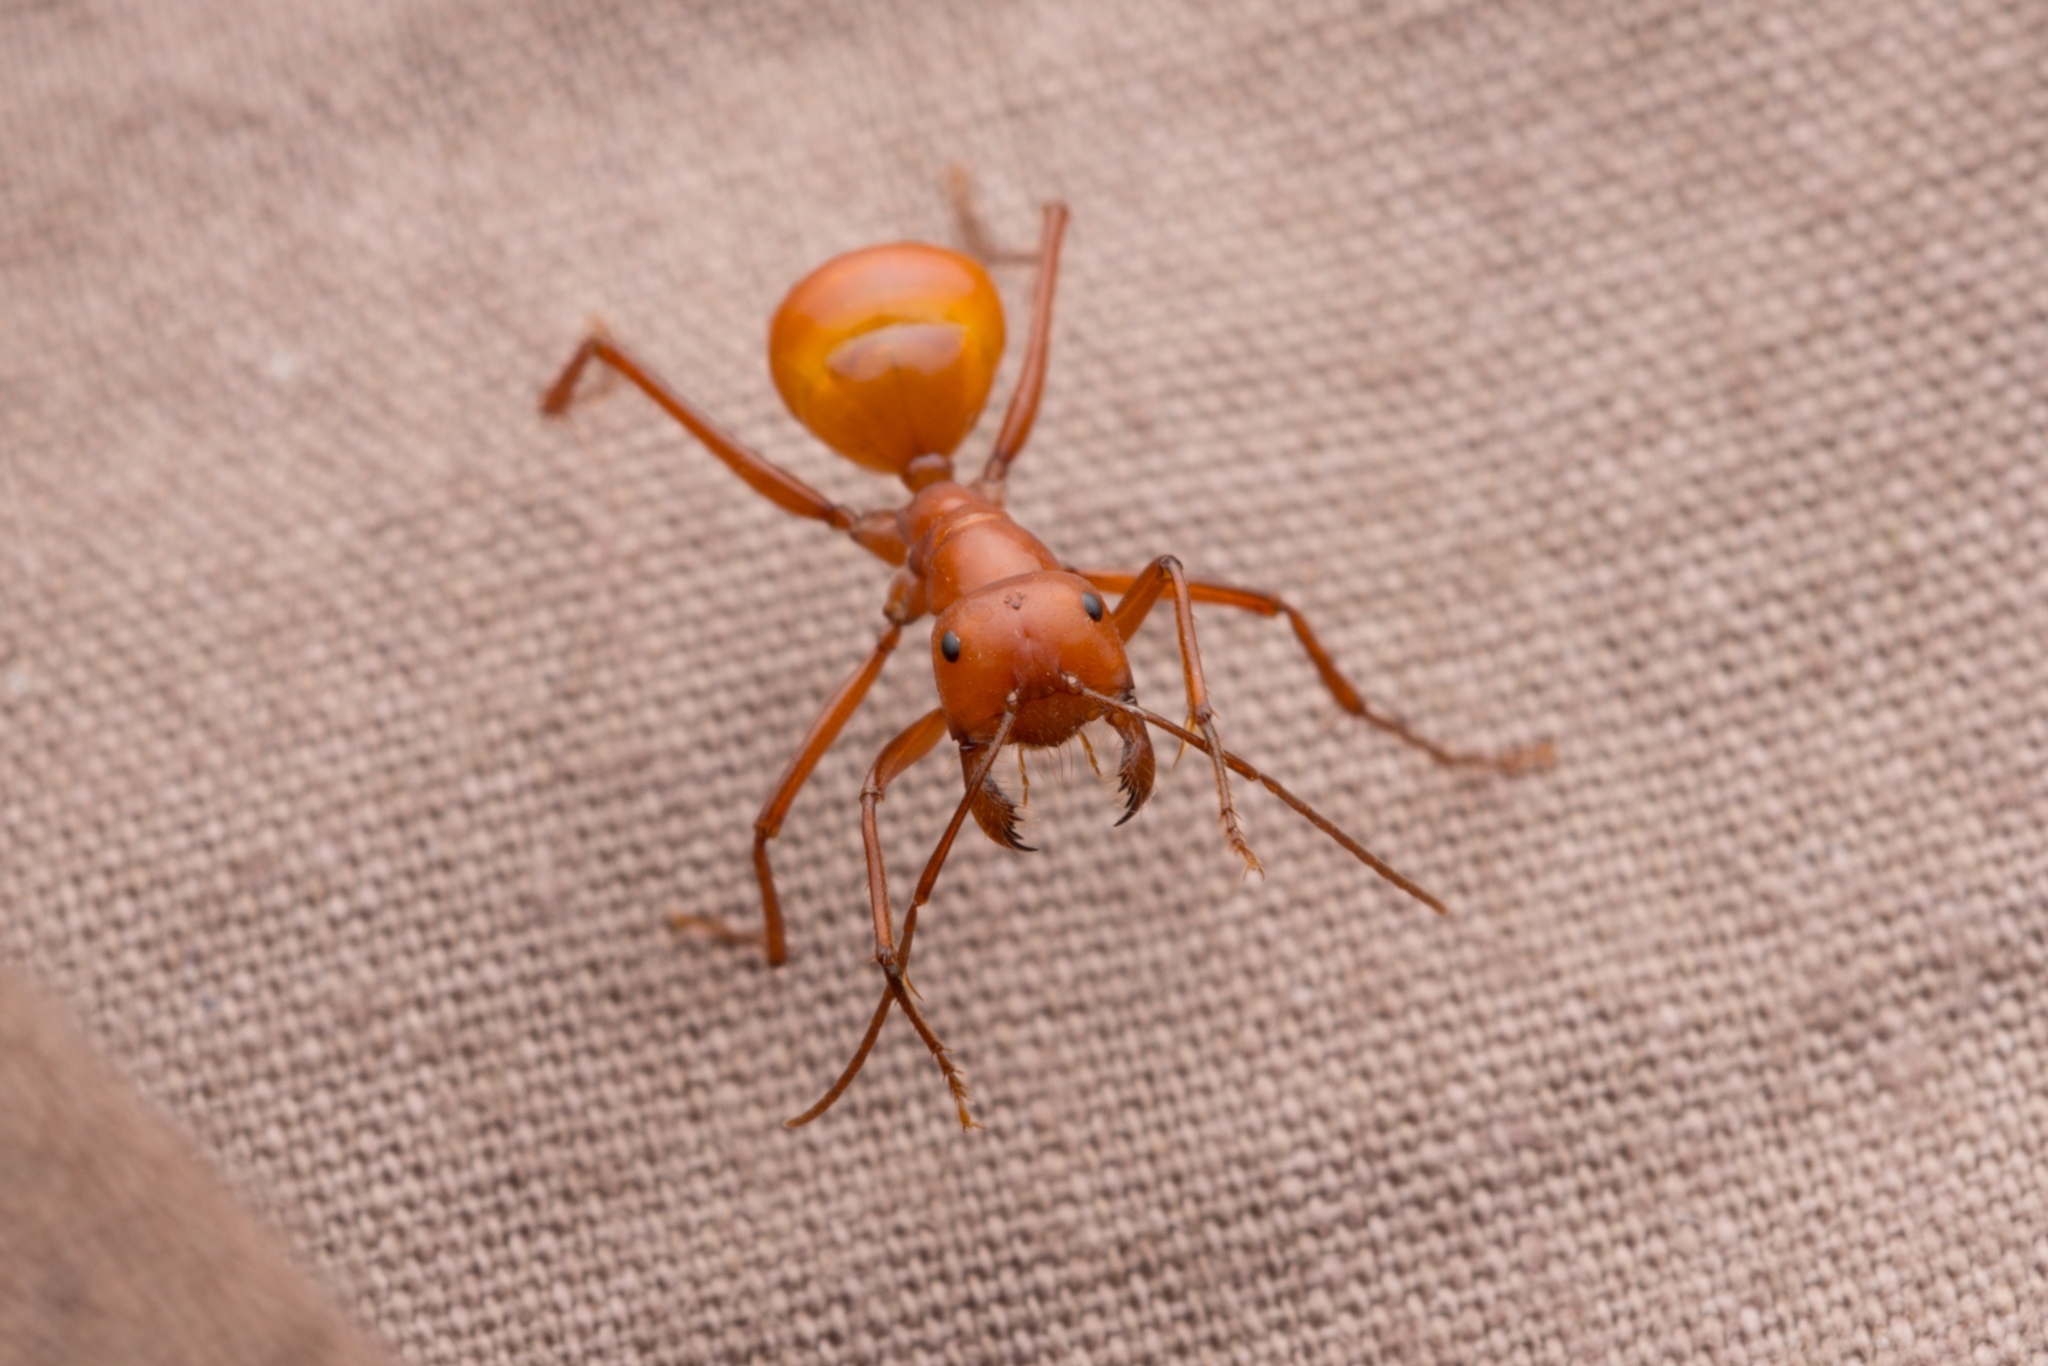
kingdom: Animalia
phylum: Arthropoda
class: Insecta
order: Hymenoptera
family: Formicidae
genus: Melophorus
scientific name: Melophorus bagoti
